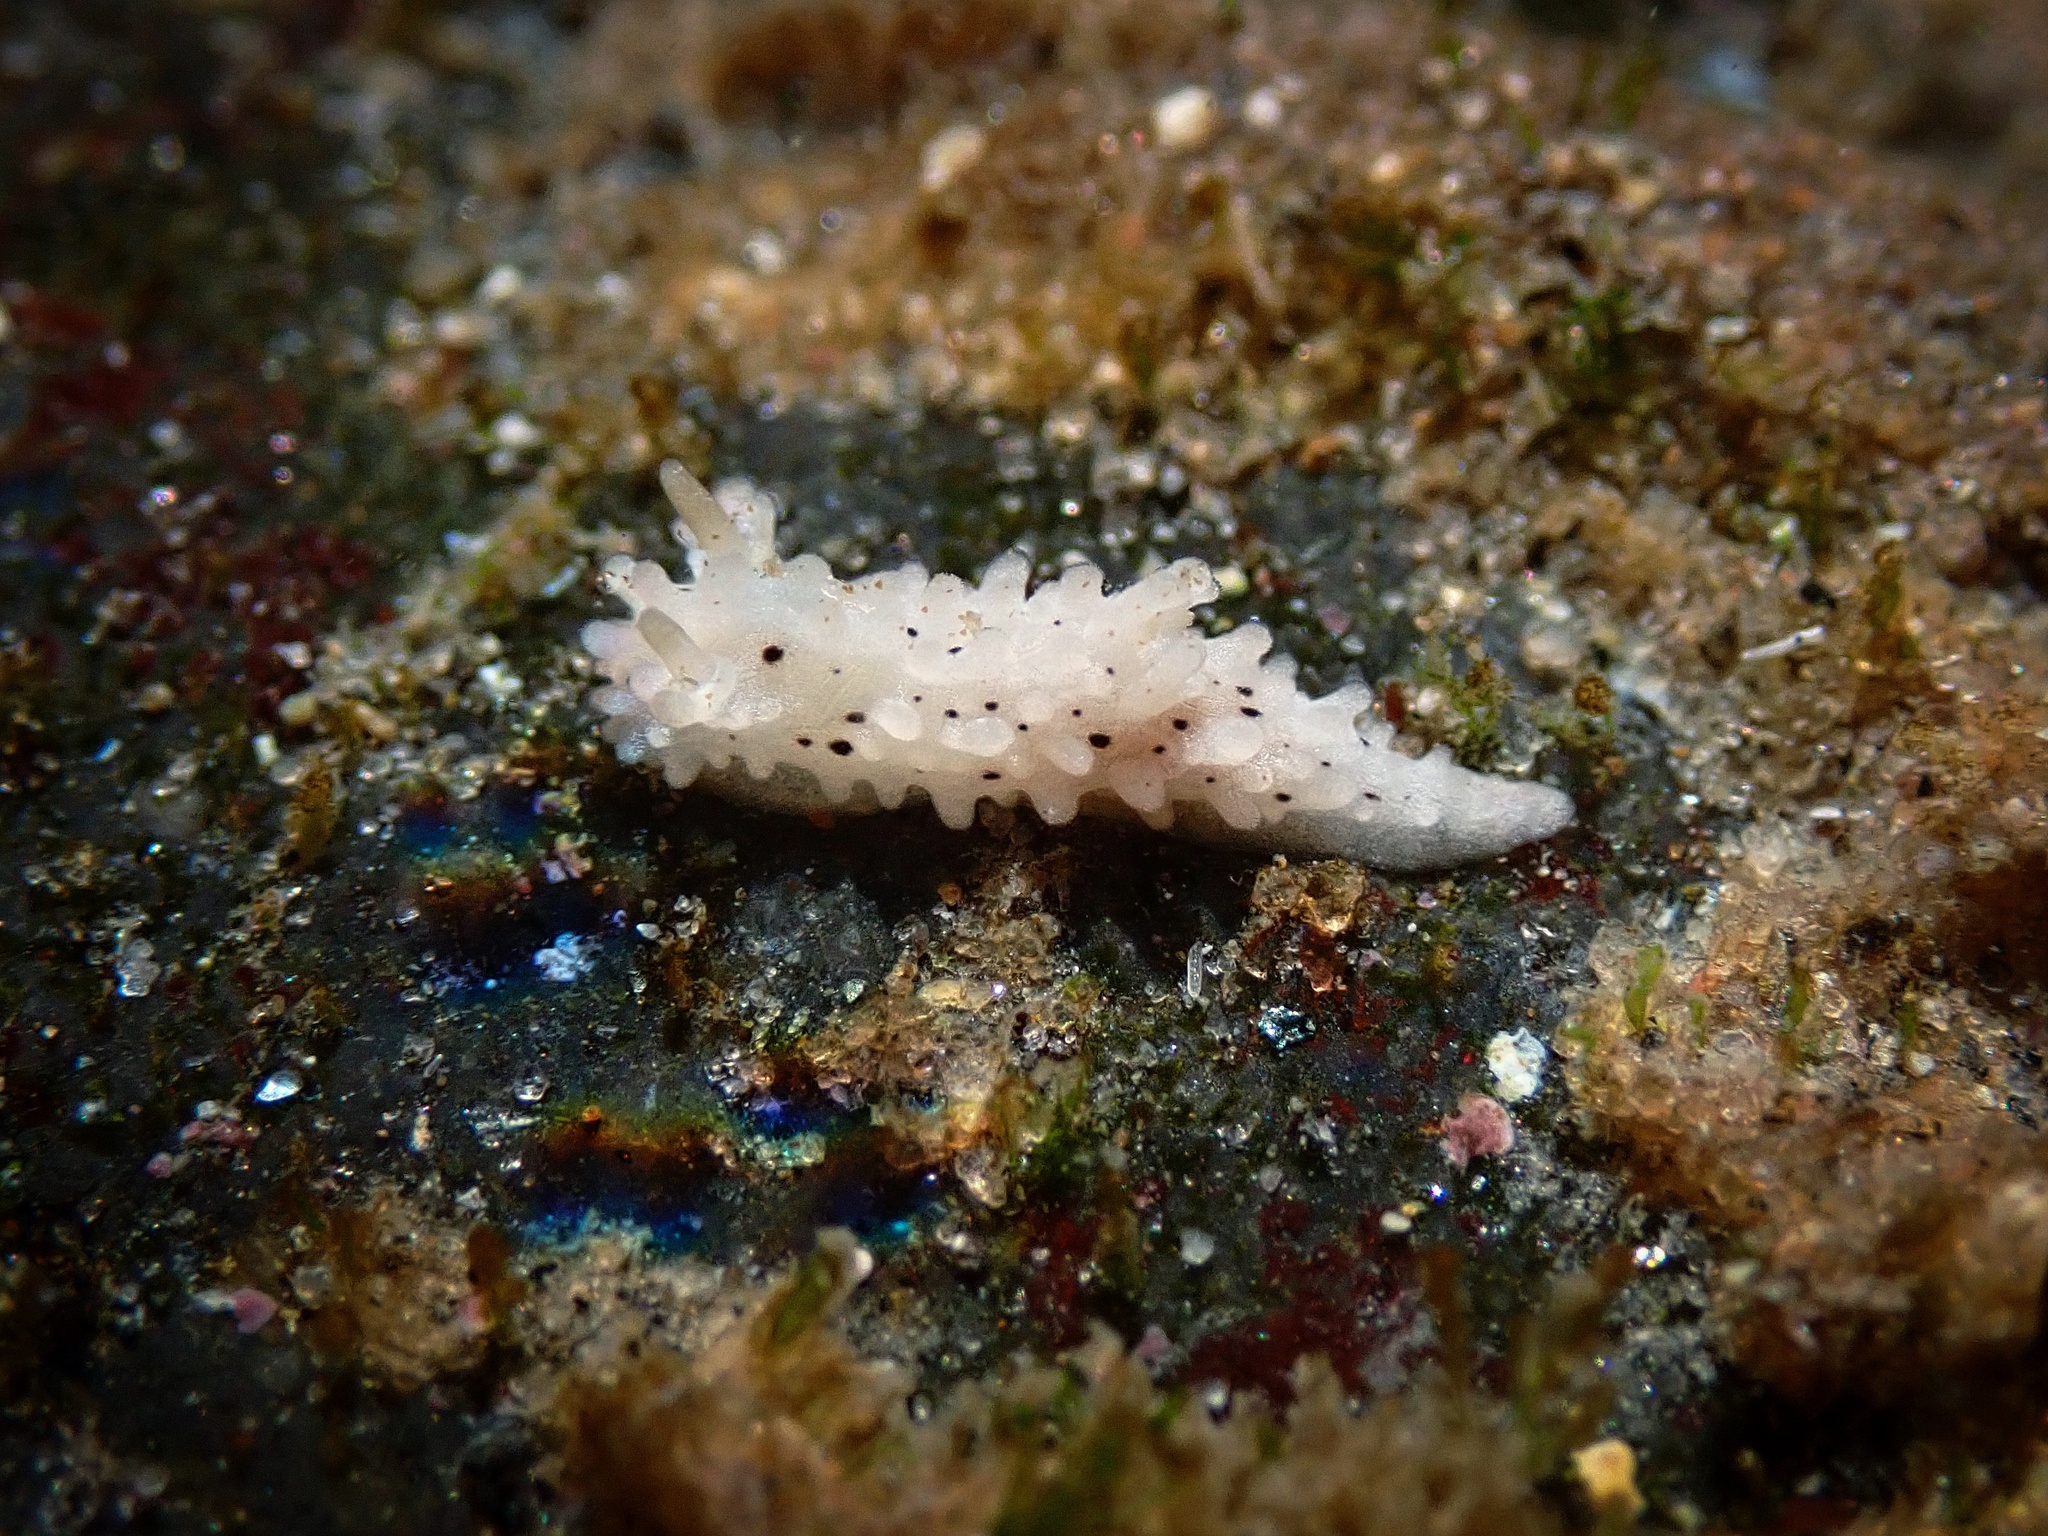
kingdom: Animalia
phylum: Mollusca
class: Gastropoda
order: Nudibranchia
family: Aegiridae
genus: Aegires
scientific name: Aegires albopunctatus
